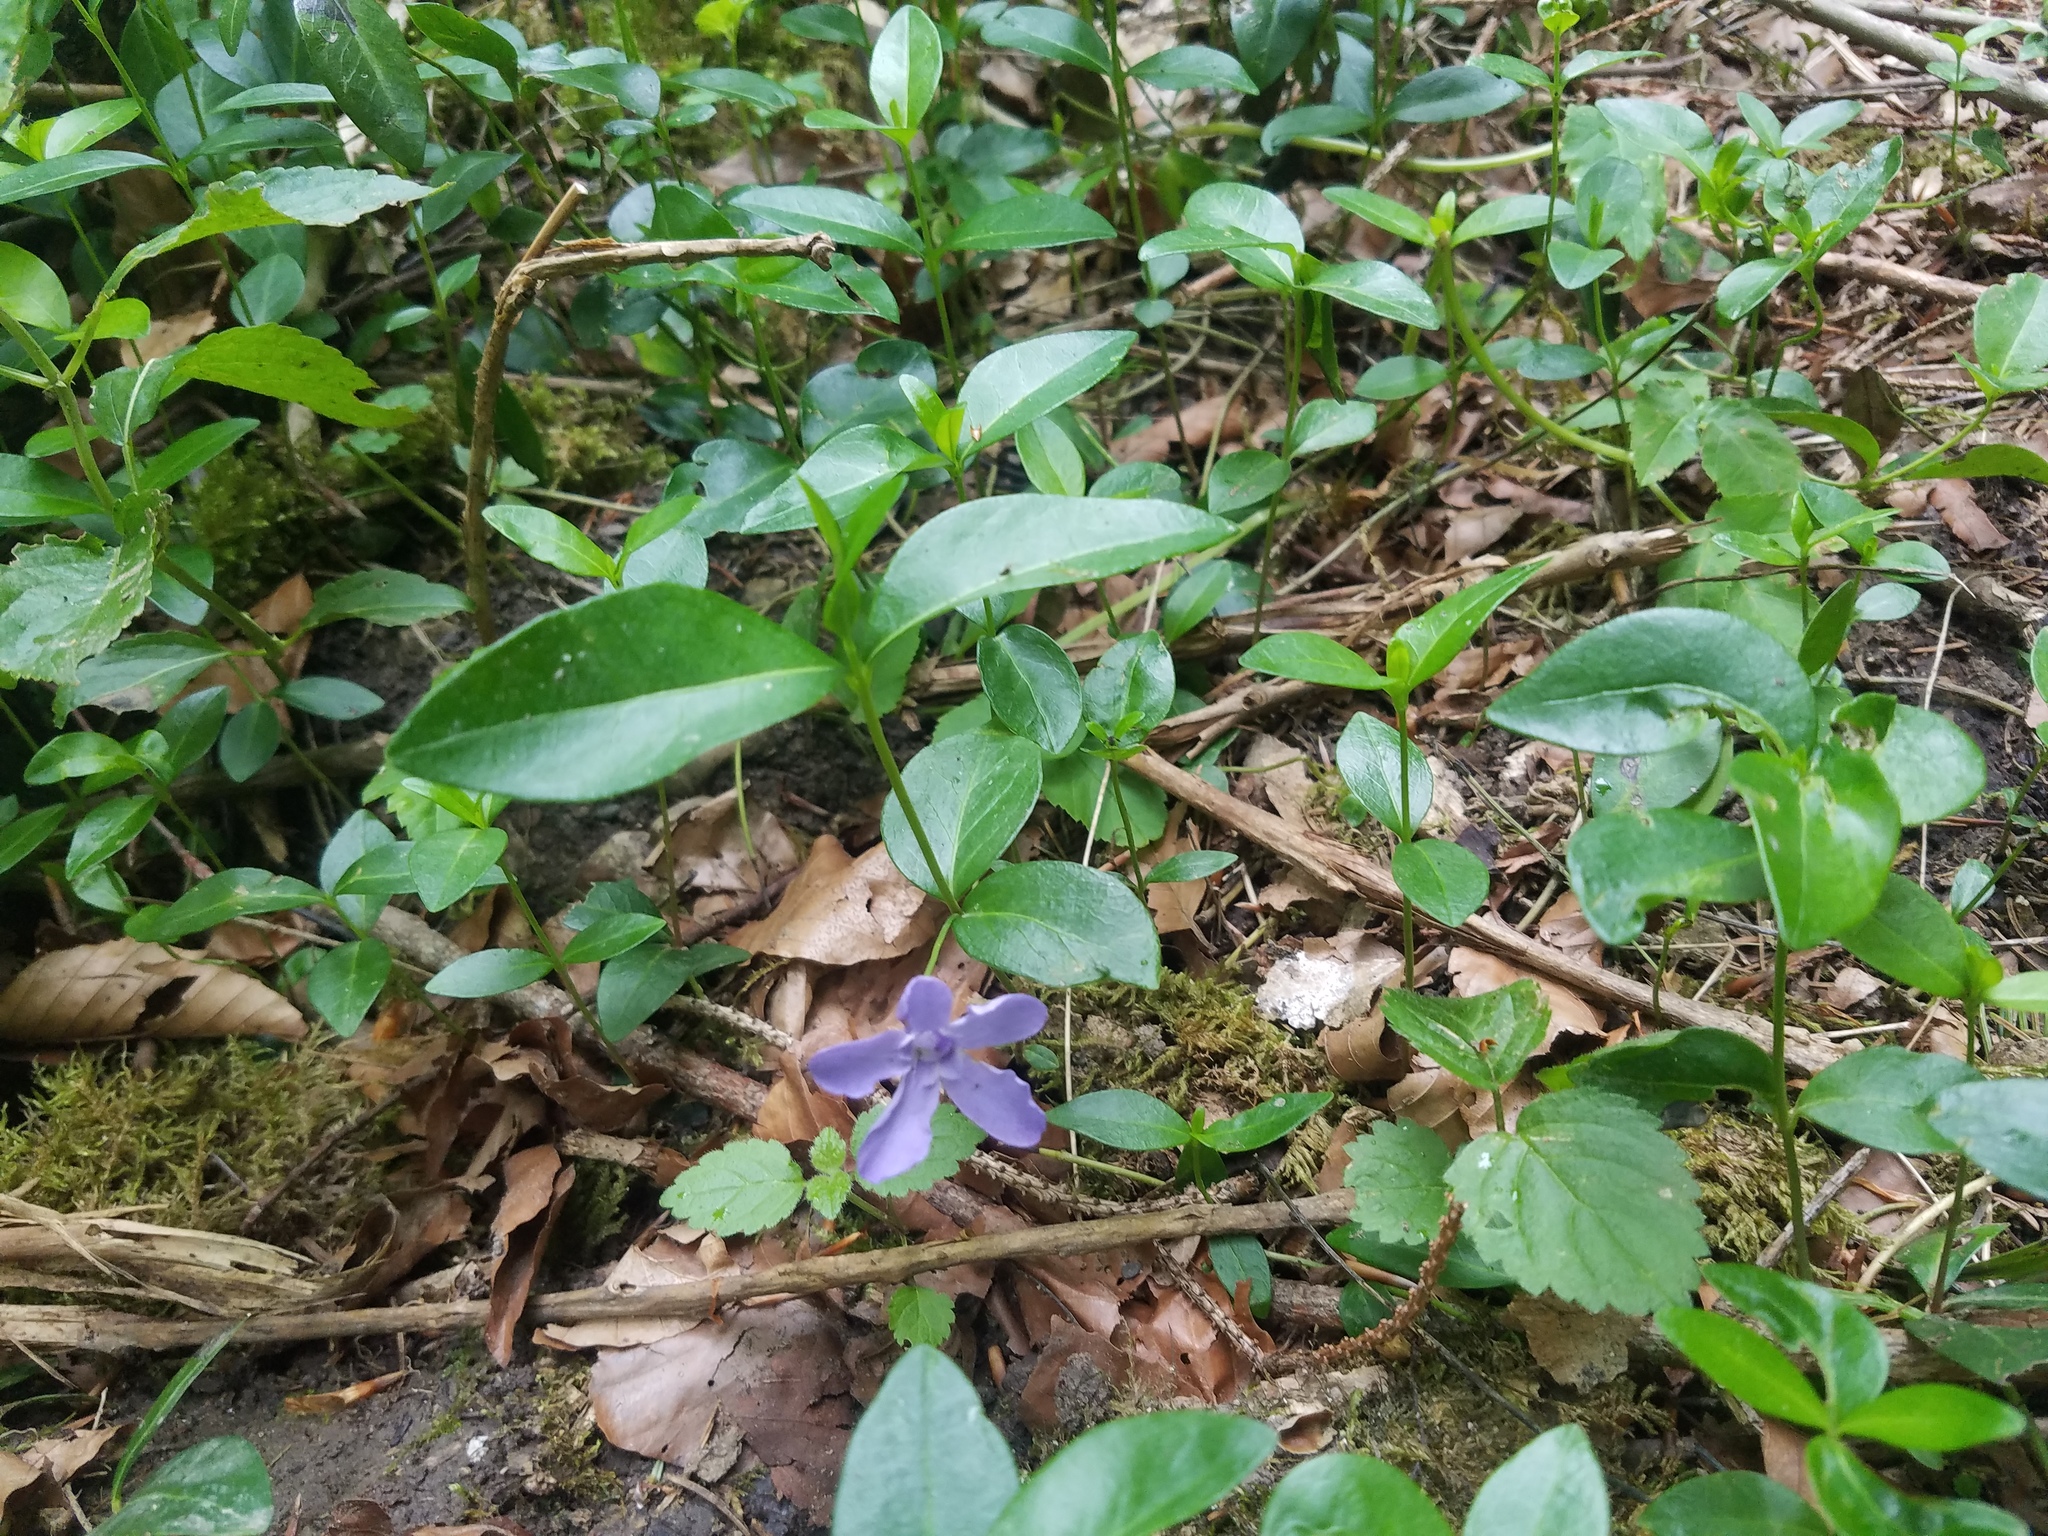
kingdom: Plantae
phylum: Tracheophyta
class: Magnoliopsida
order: Gentianales
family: Apocynaceae
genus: Vinca
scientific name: Vinca minor
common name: Lesser periwinkle
